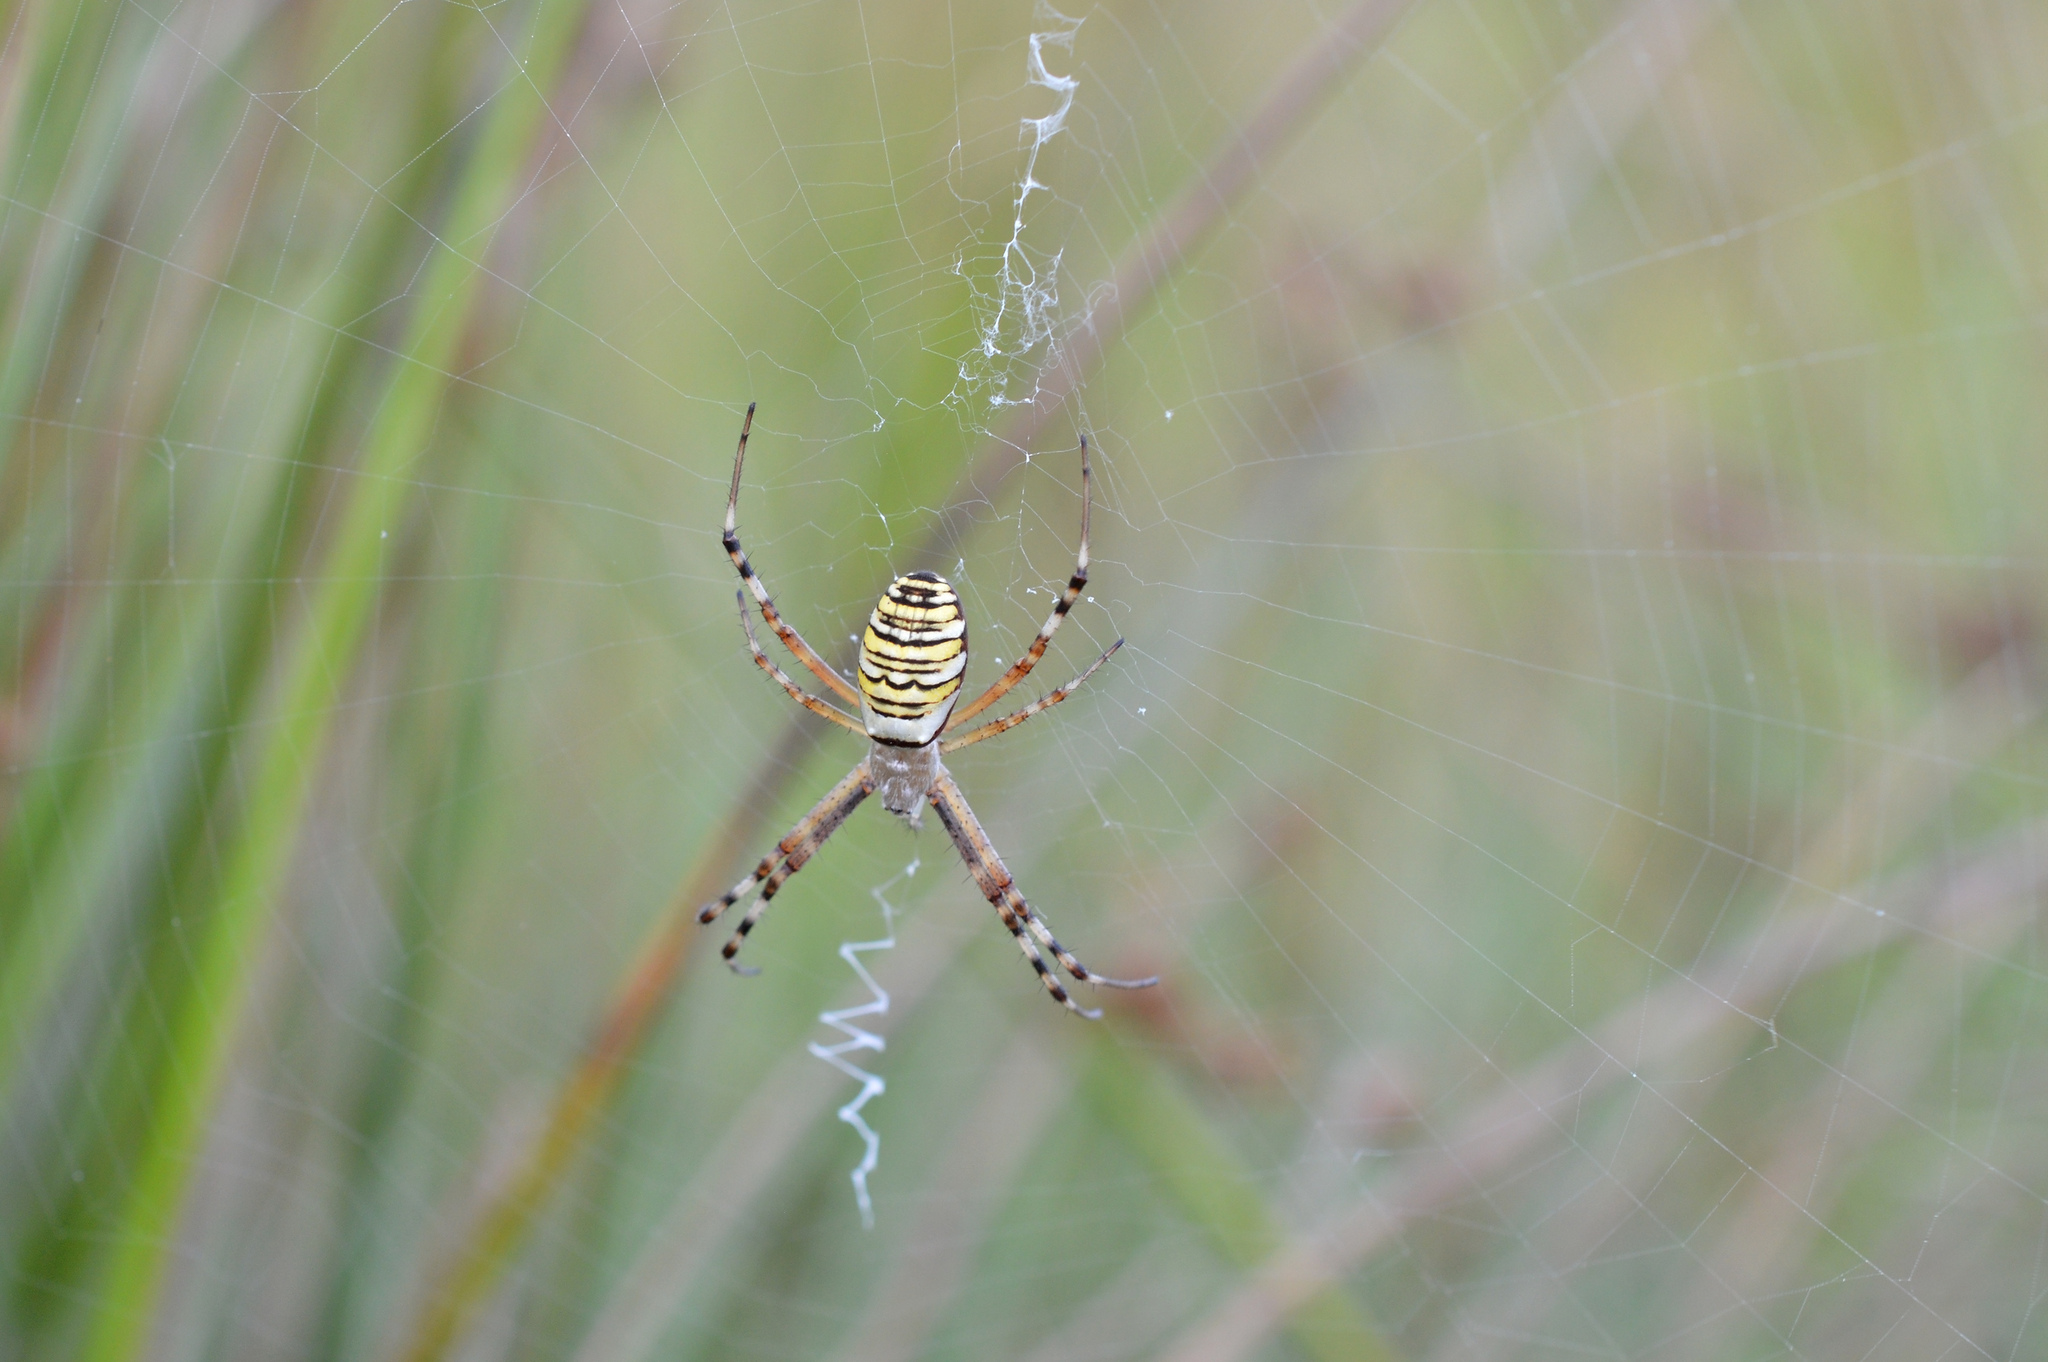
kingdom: Animalia
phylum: Arthropoda
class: Arachnida
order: Araneae
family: Araneidae
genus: Argiope
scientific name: Argiope bruennichi
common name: Wasp spider
